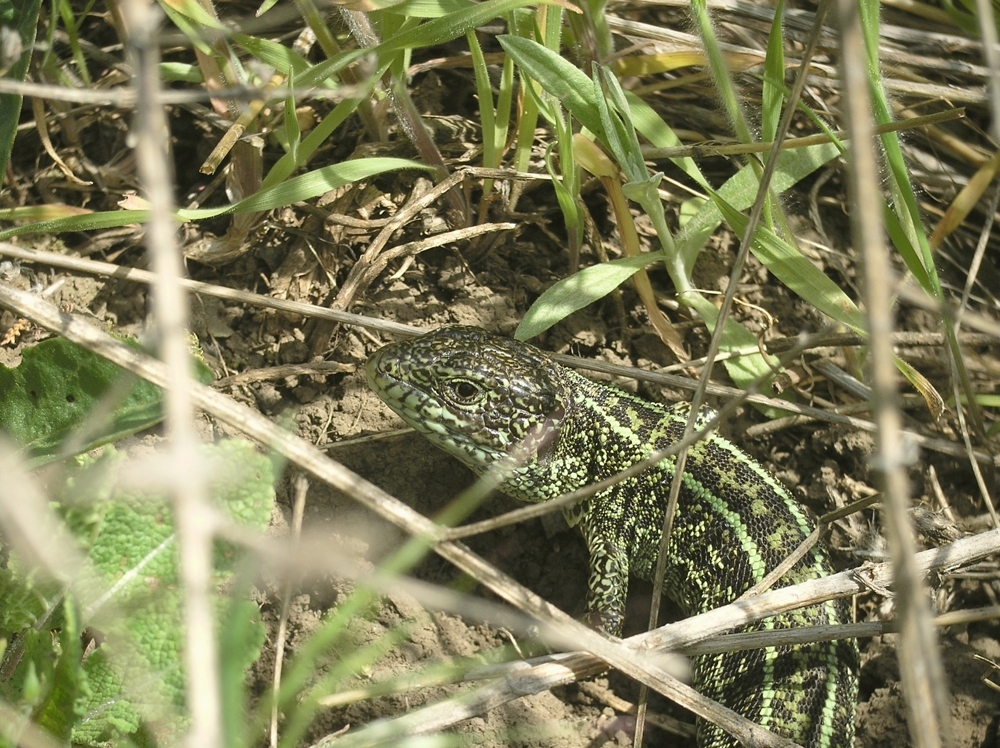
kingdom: Animalia
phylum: Chordata
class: Squamata
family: Lacertidae
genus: Lacerta
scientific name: Lacerta agilis
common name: Sand lizard
